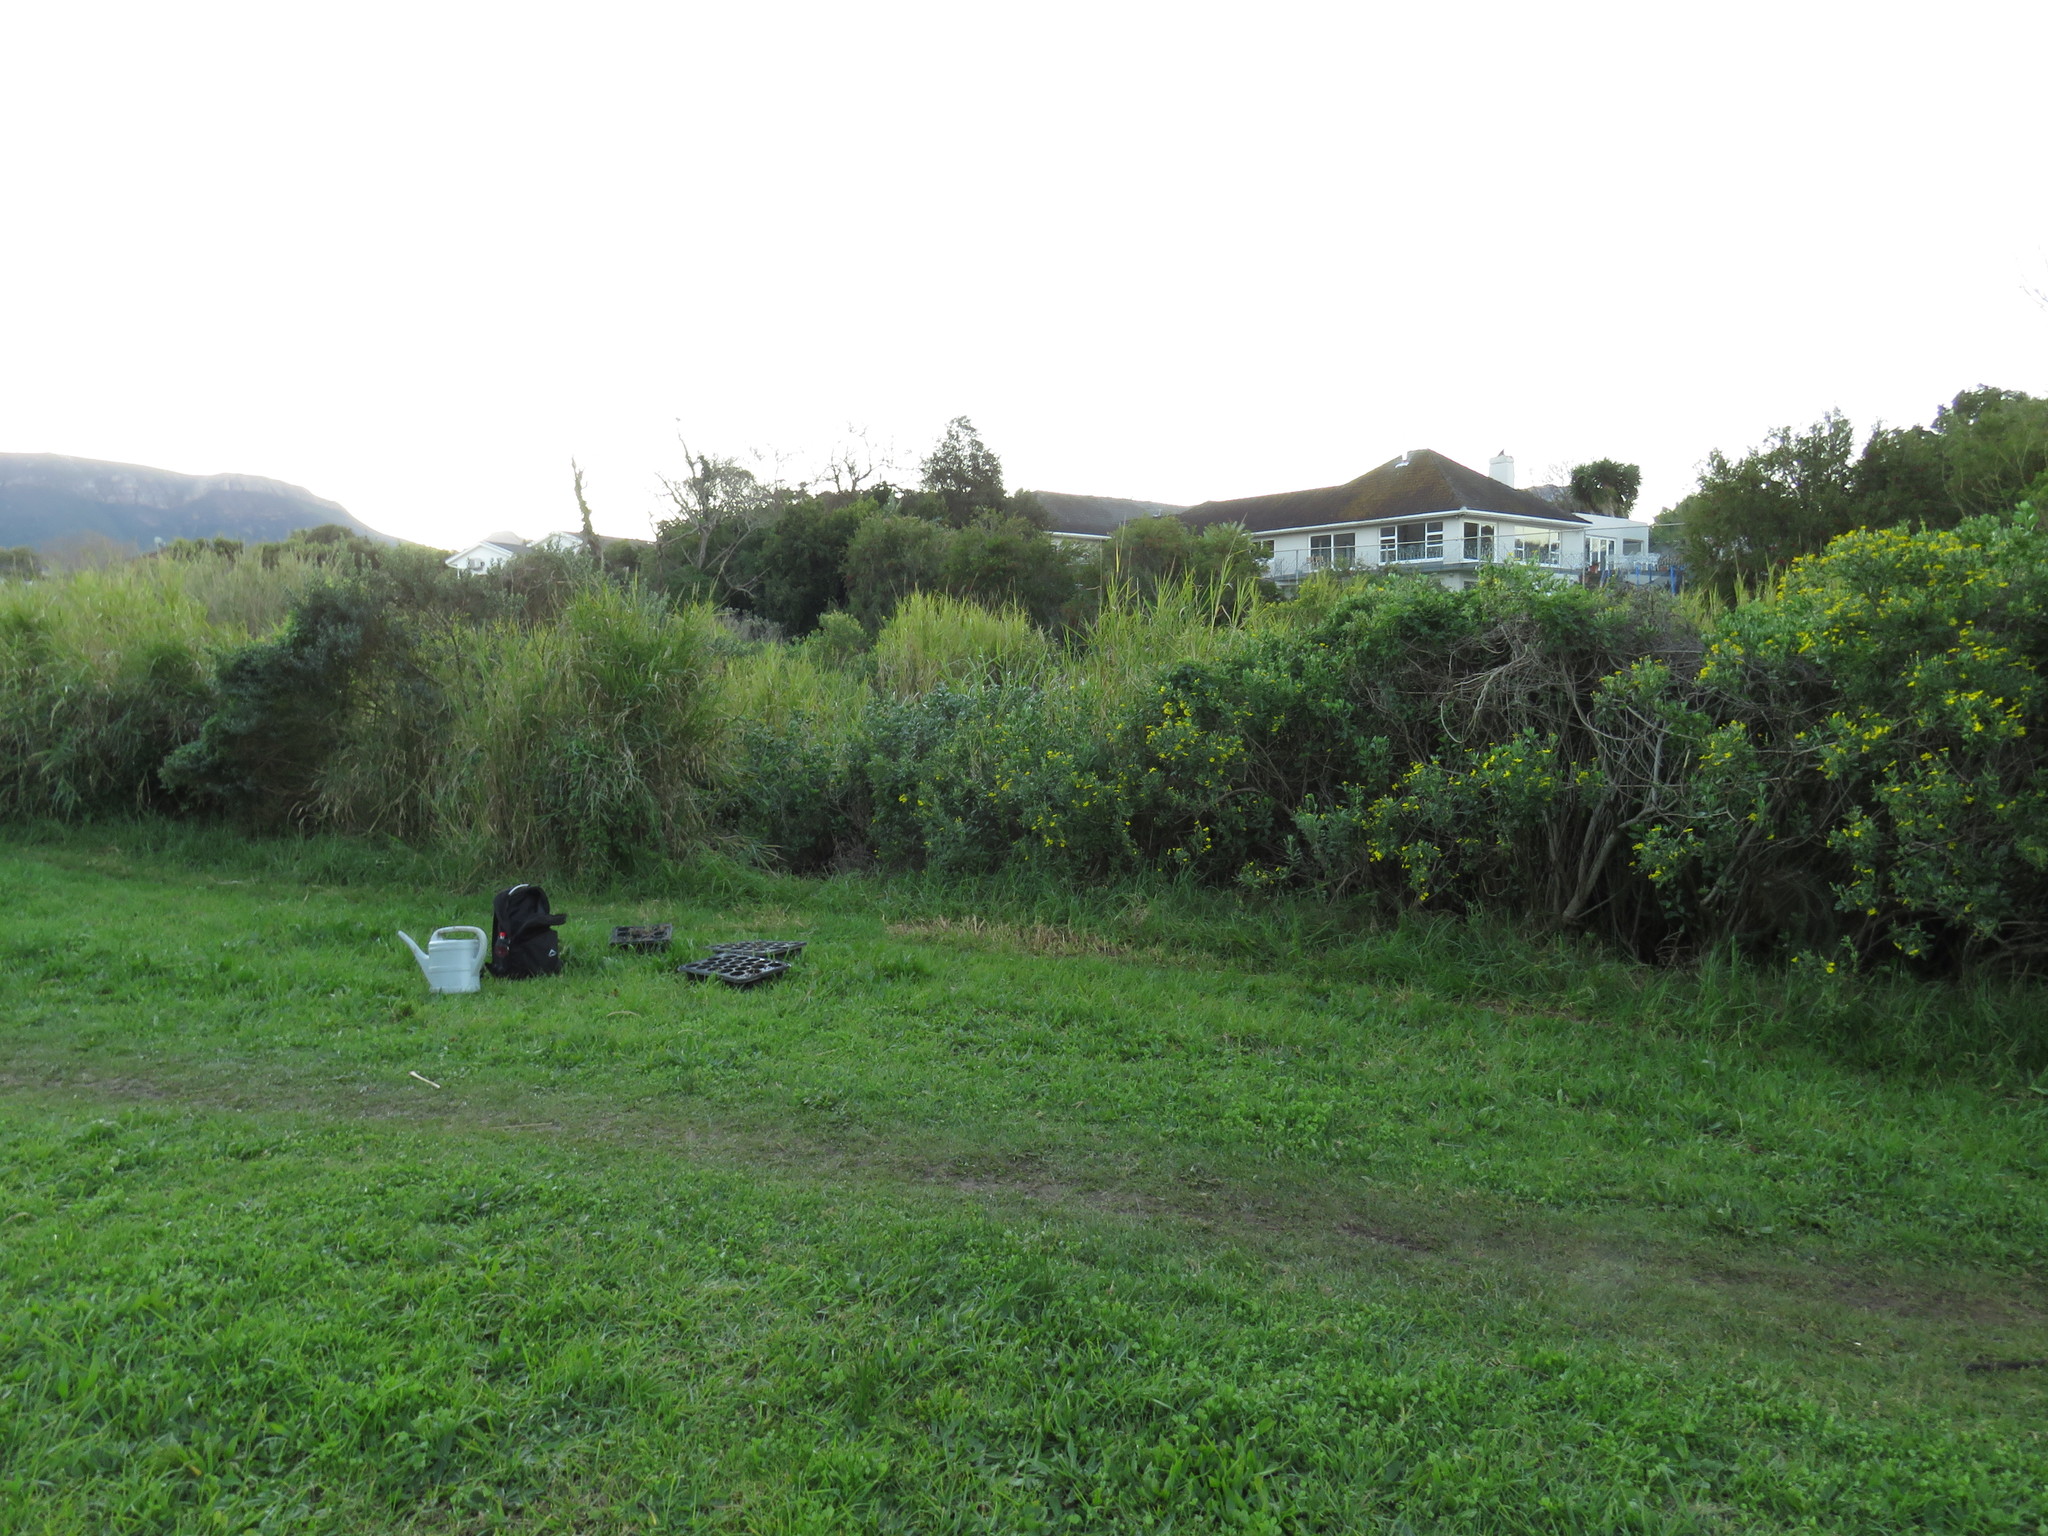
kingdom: Plantae
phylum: Tracheophyta
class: Magnoliopsida
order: Fabales
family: Fabaceae
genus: Psoralea
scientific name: Psoralea fascicularis
